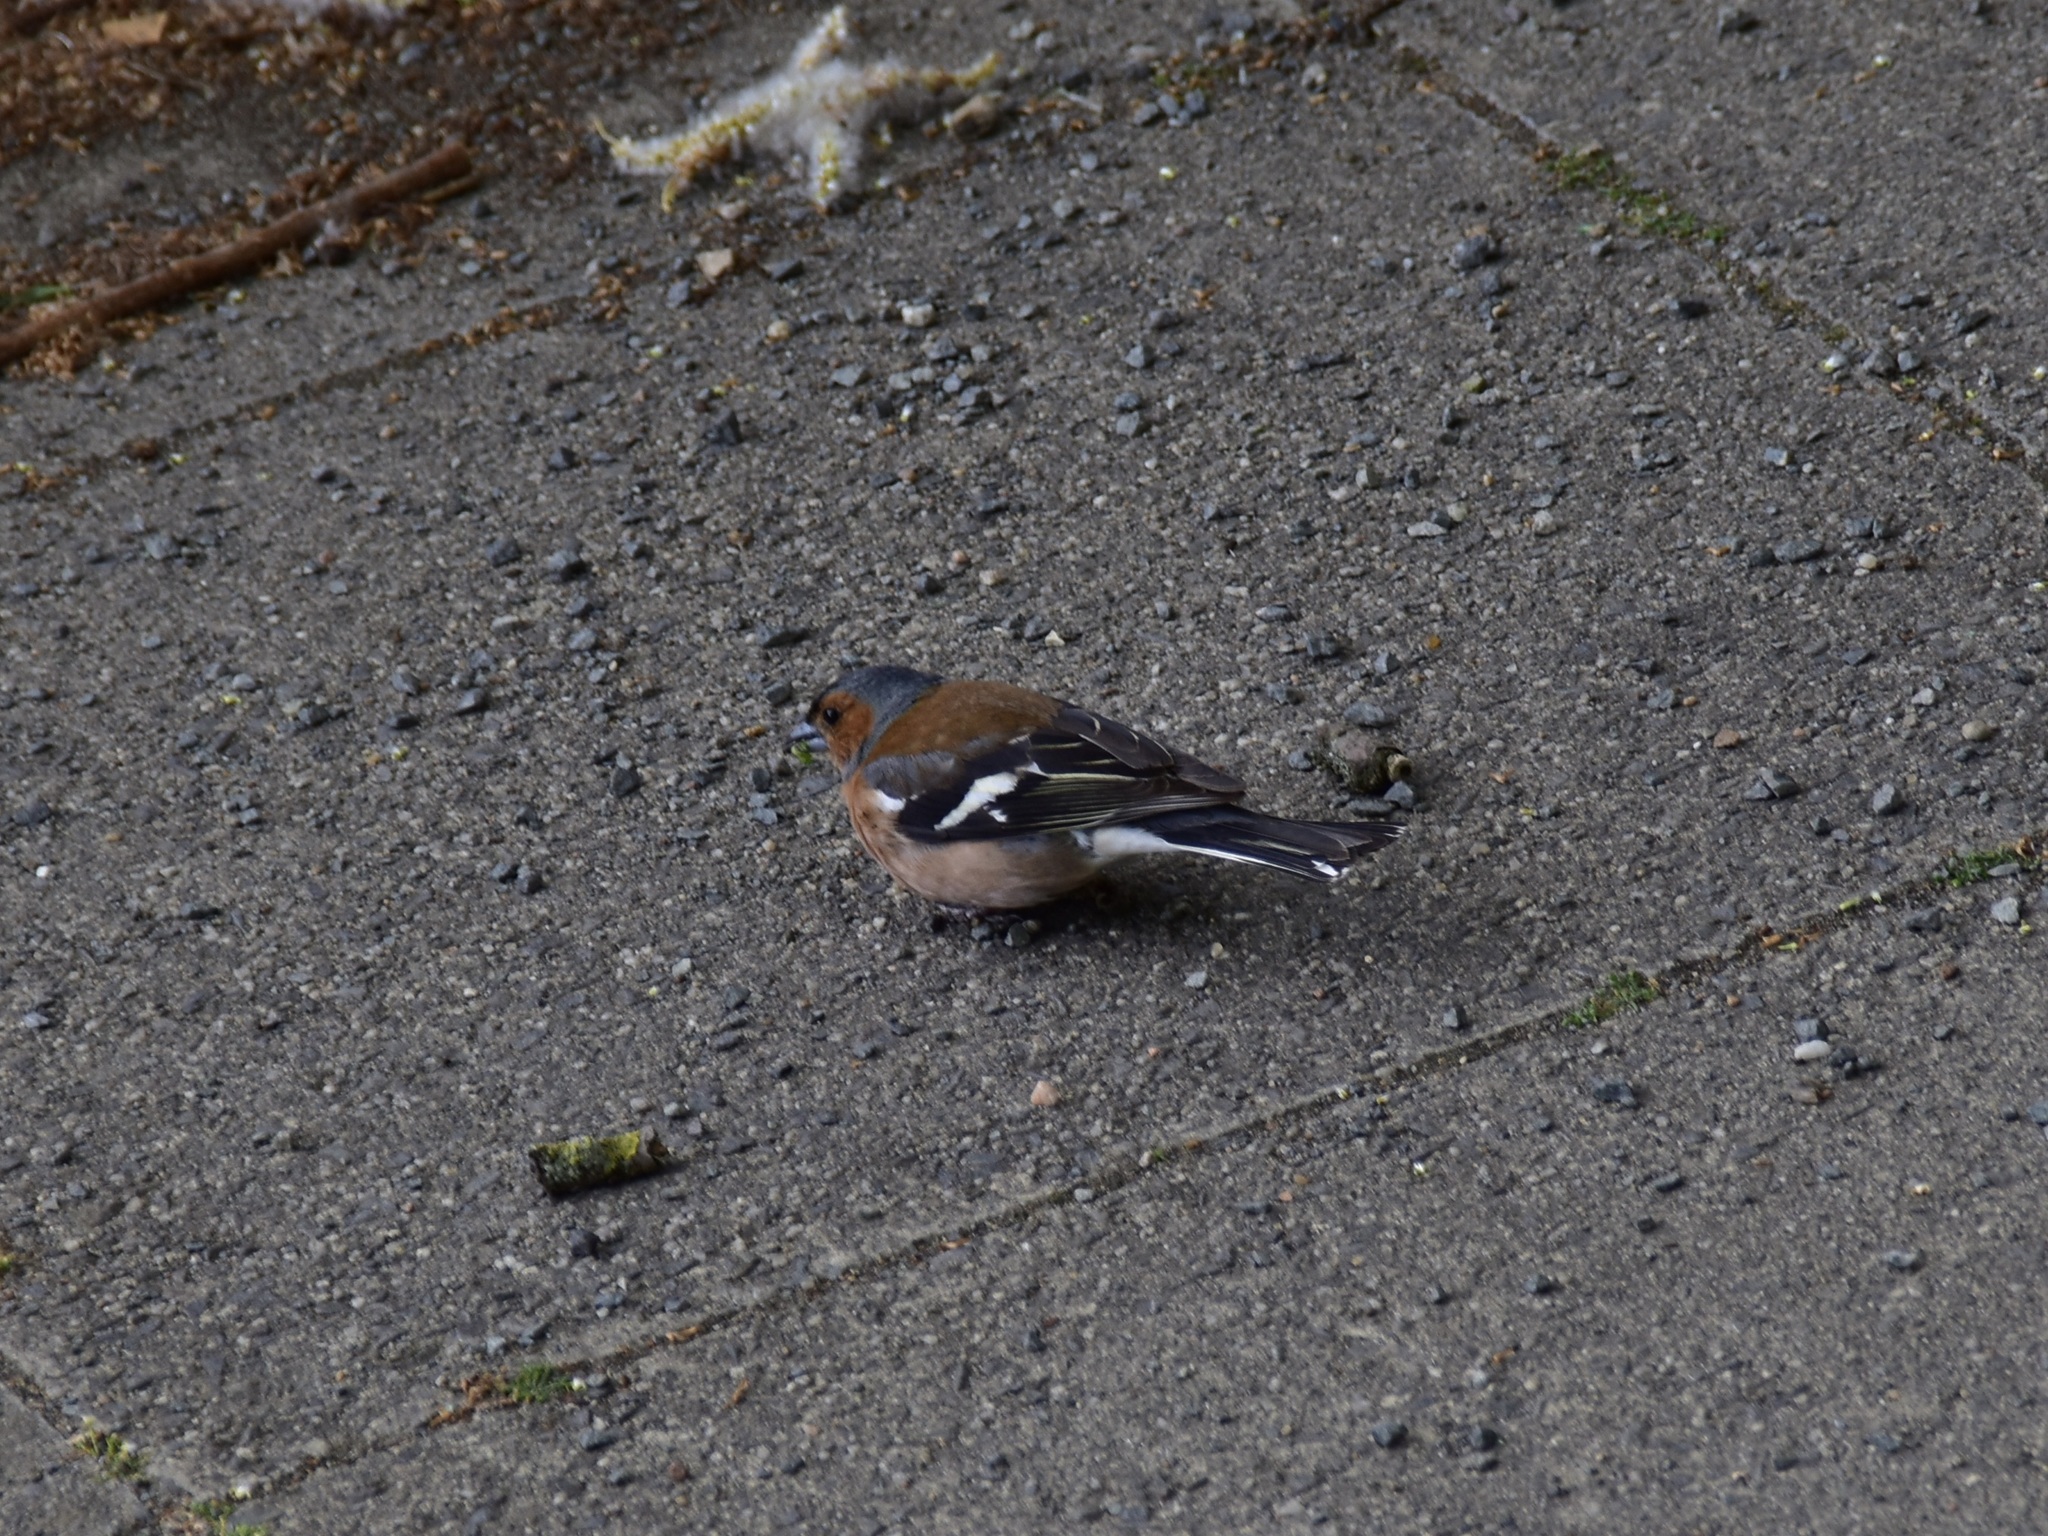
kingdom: Animalia
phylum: Chordata
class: Aves
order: Passeriformes
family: Fringillidae
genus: Fringilla
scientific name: Fringilla coelebs
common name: Common chaffinch
